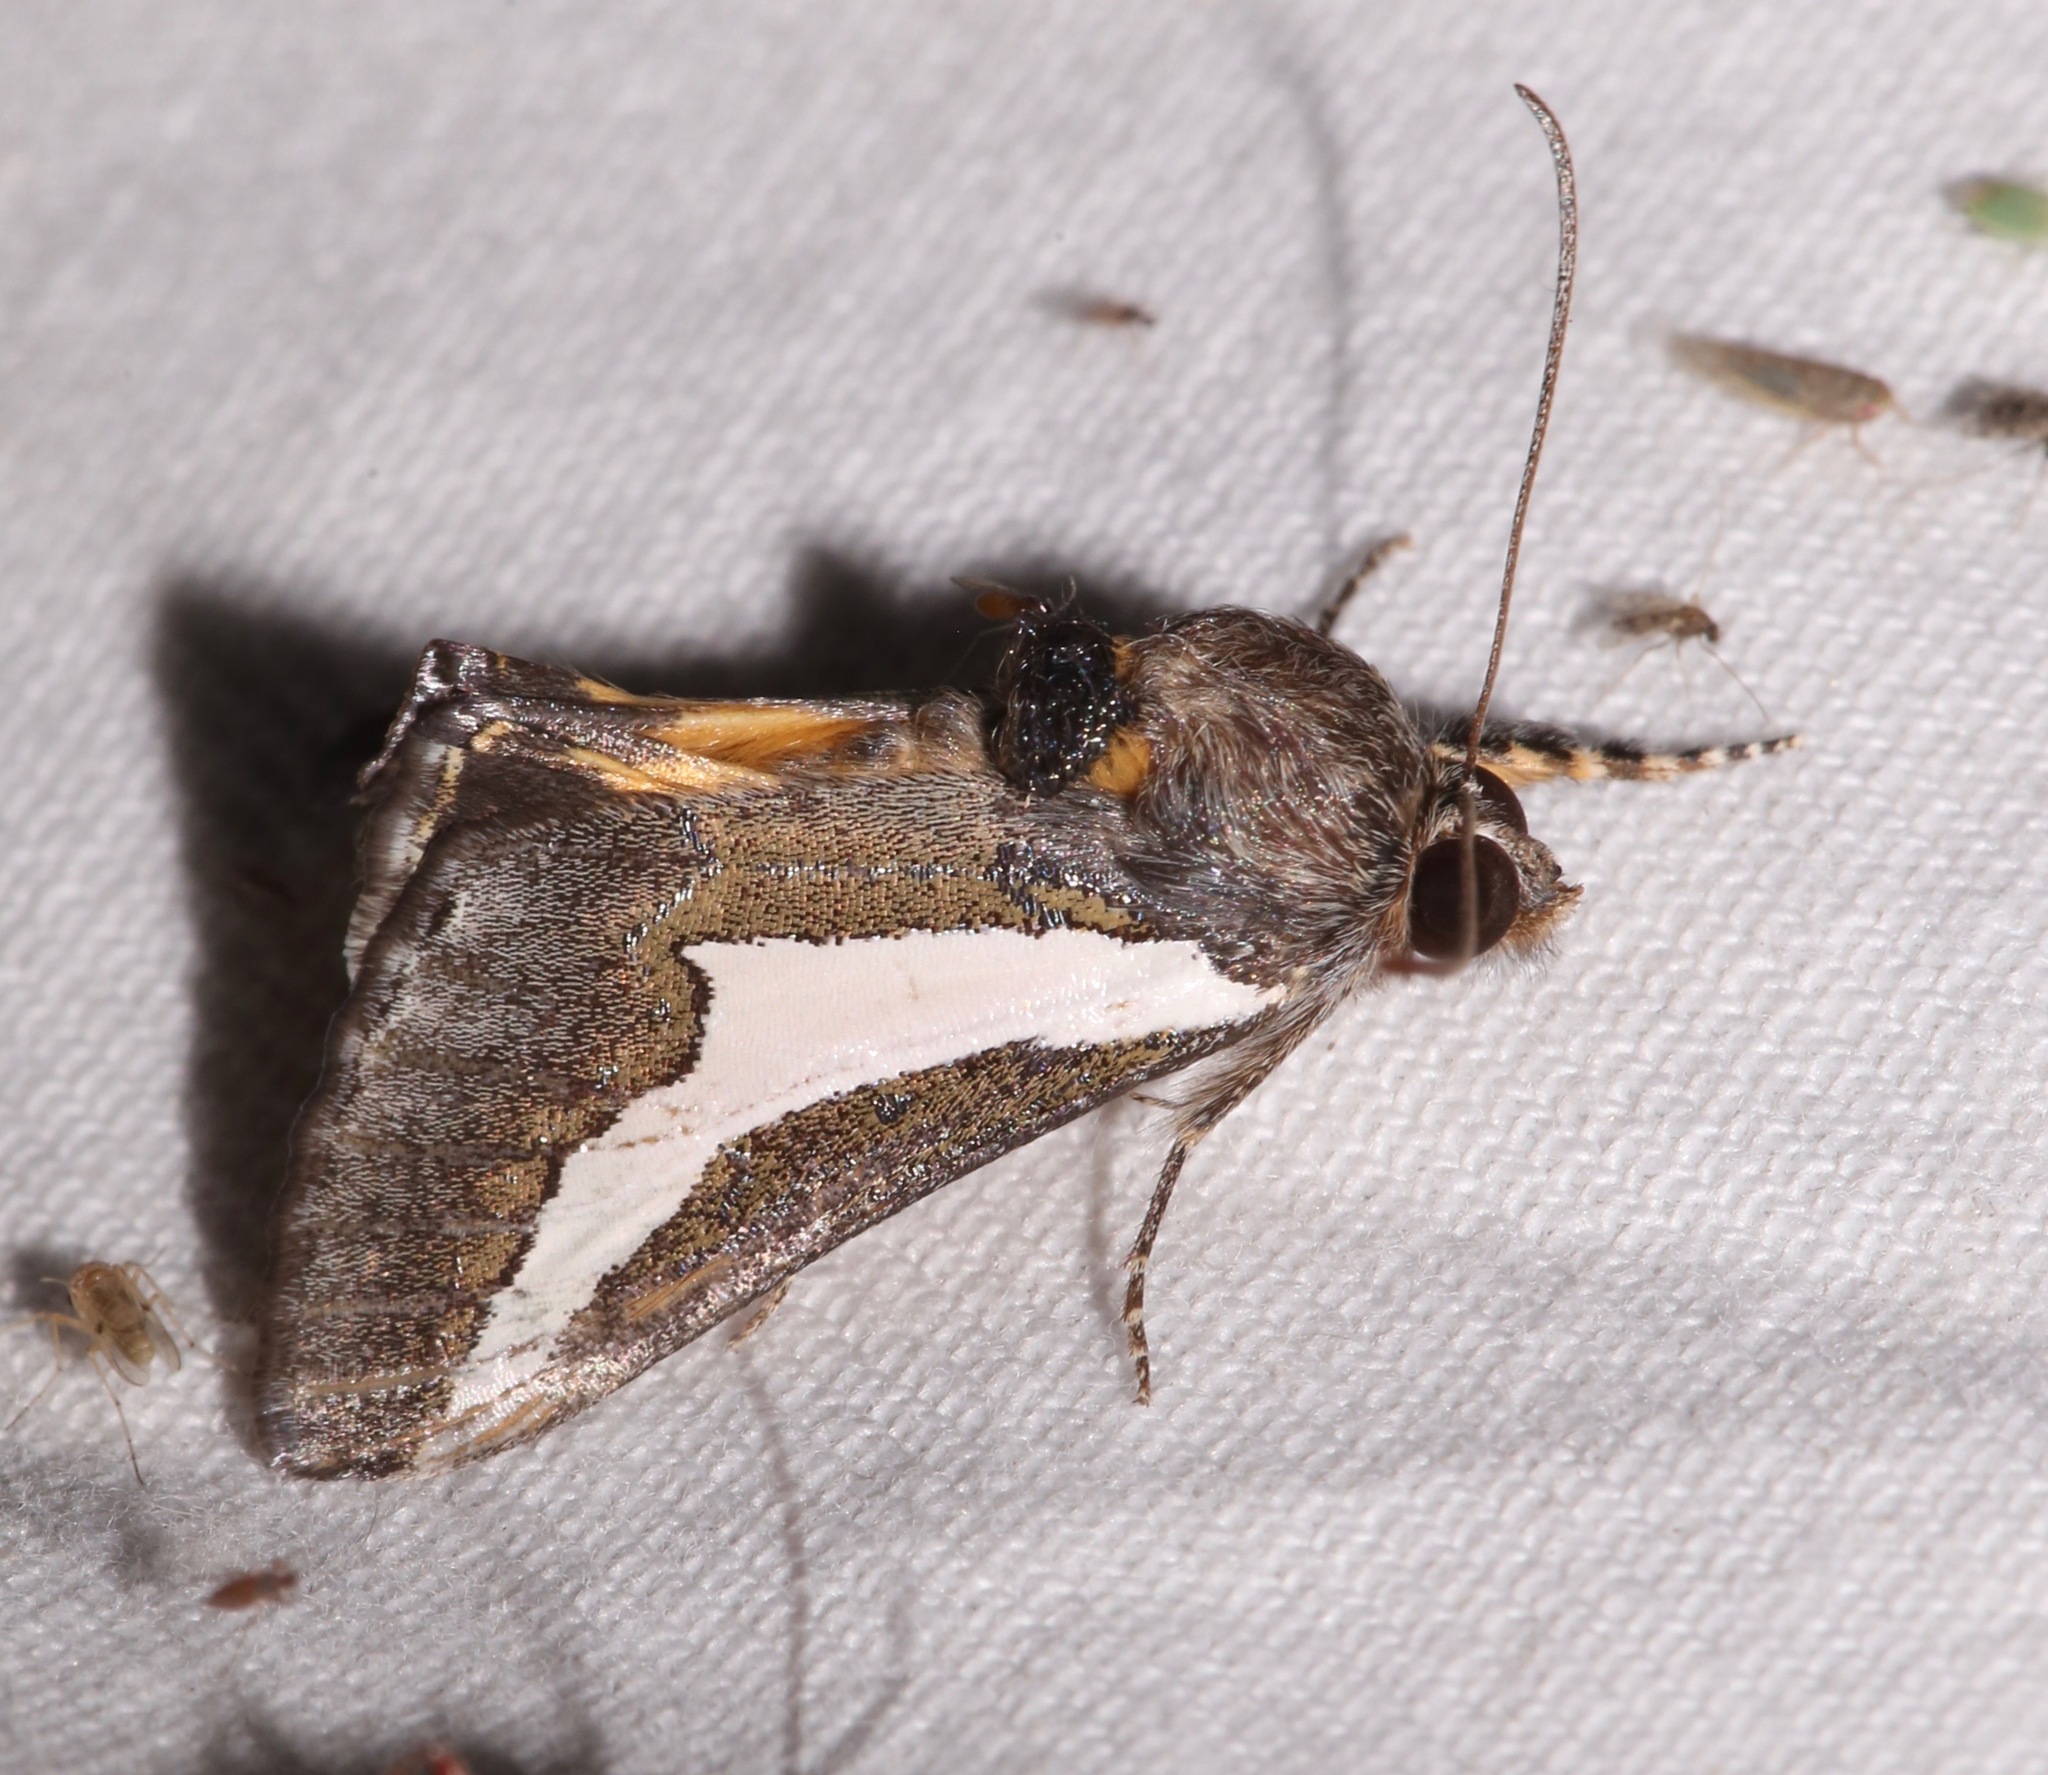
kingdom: Animalia
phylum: Arthropoda
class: Insecta
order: Lepidoptera
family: Noctuidae
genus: Euscirrhopterus
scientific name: Euscirrhopterus cosyra
